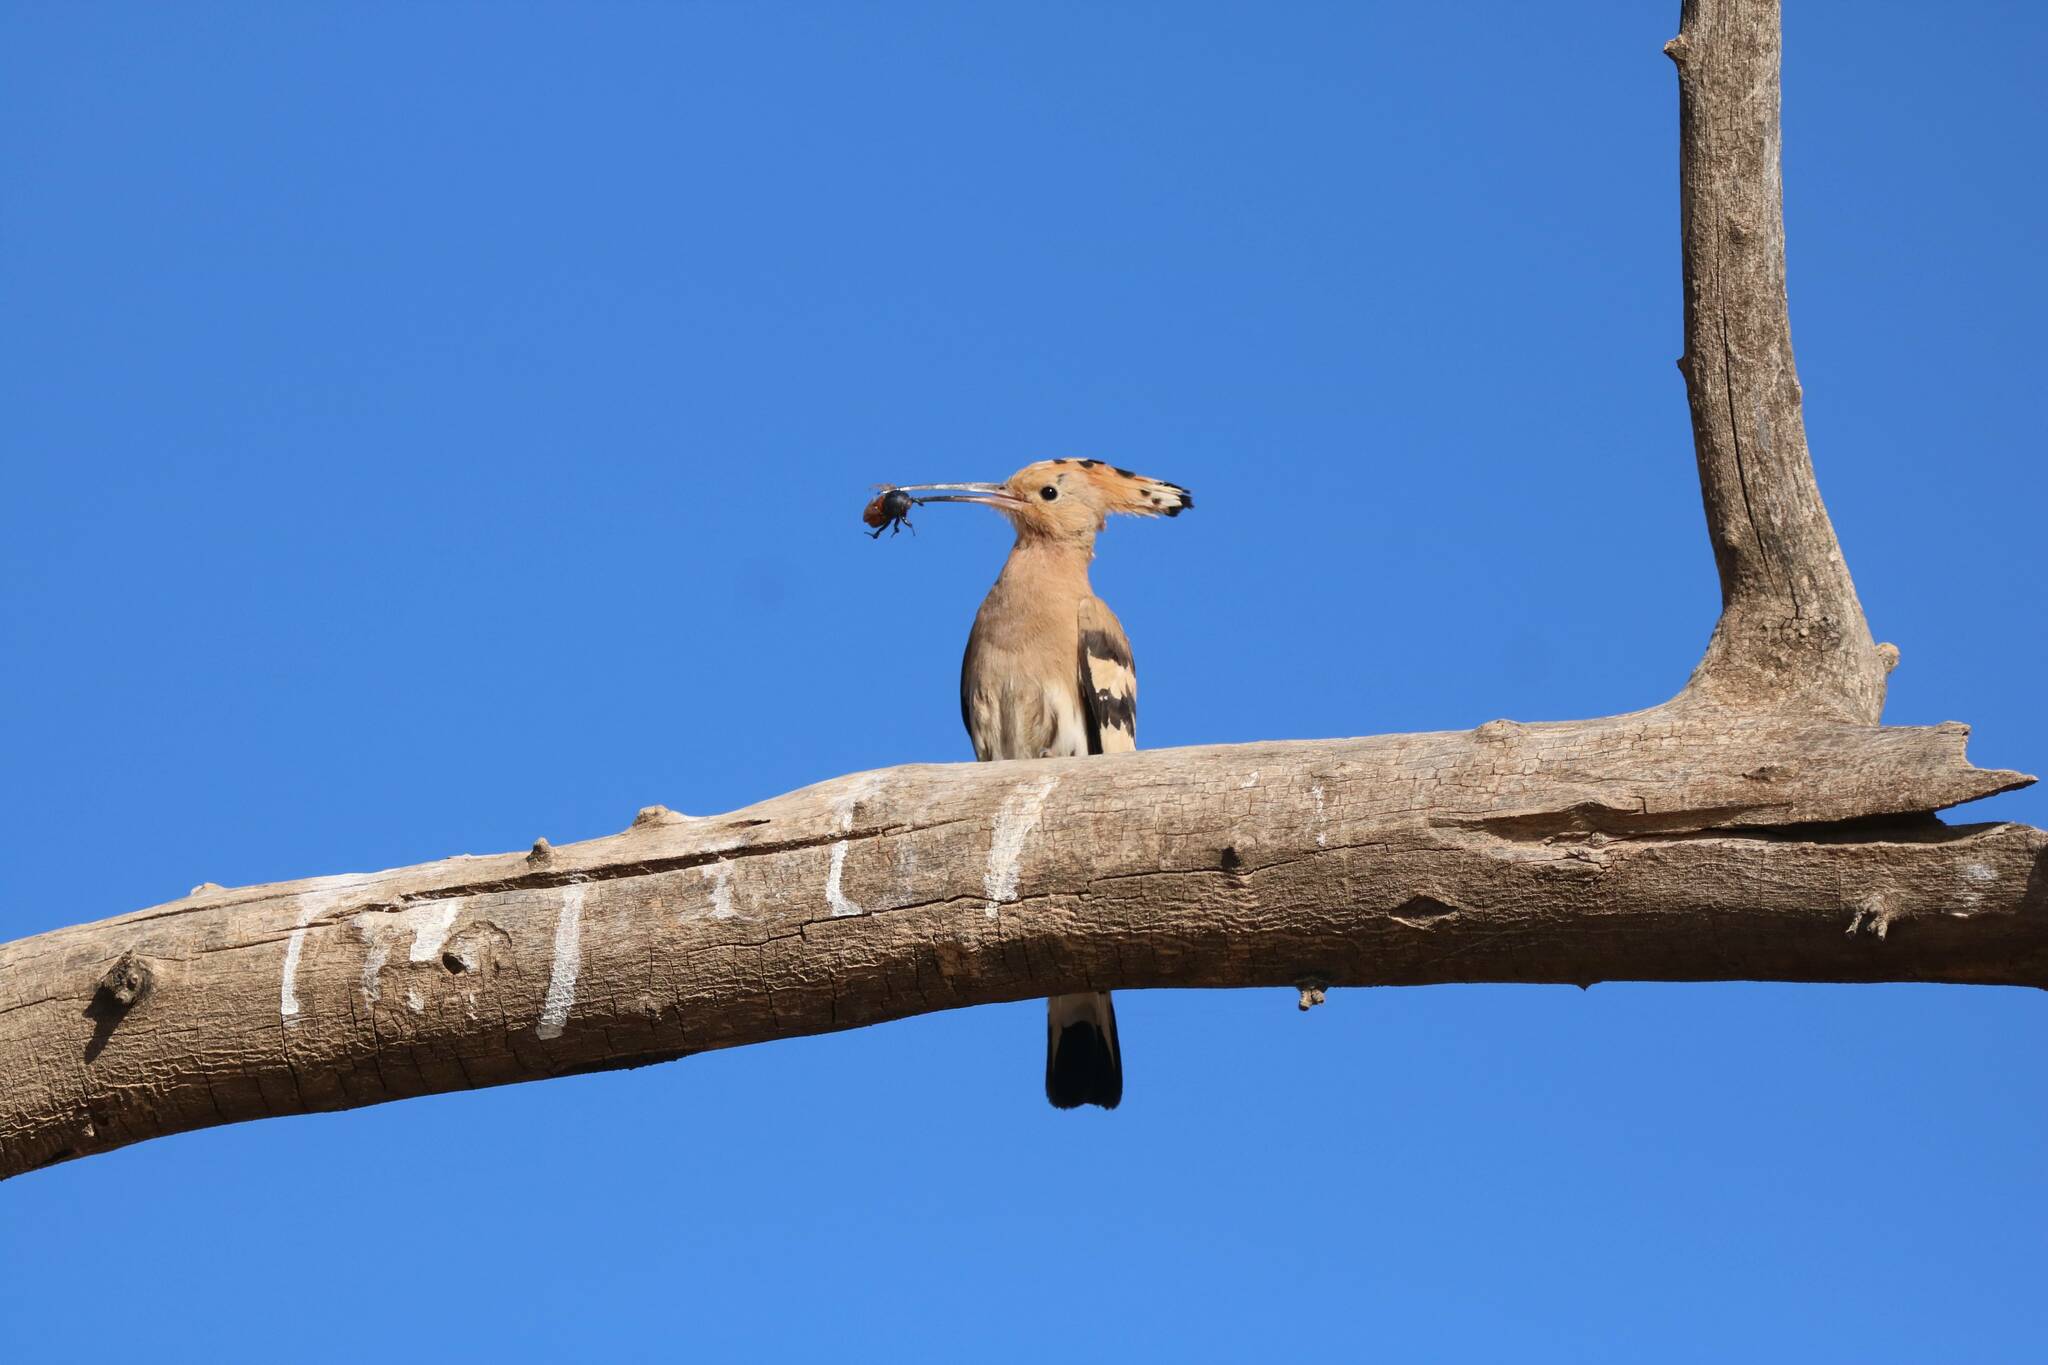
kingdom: Animalia
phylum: Chordata
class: Aves
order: Bucerotiformes
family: Upupidae
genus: Upupa
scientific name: Upupa epops
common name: Eurasian hoopoe
